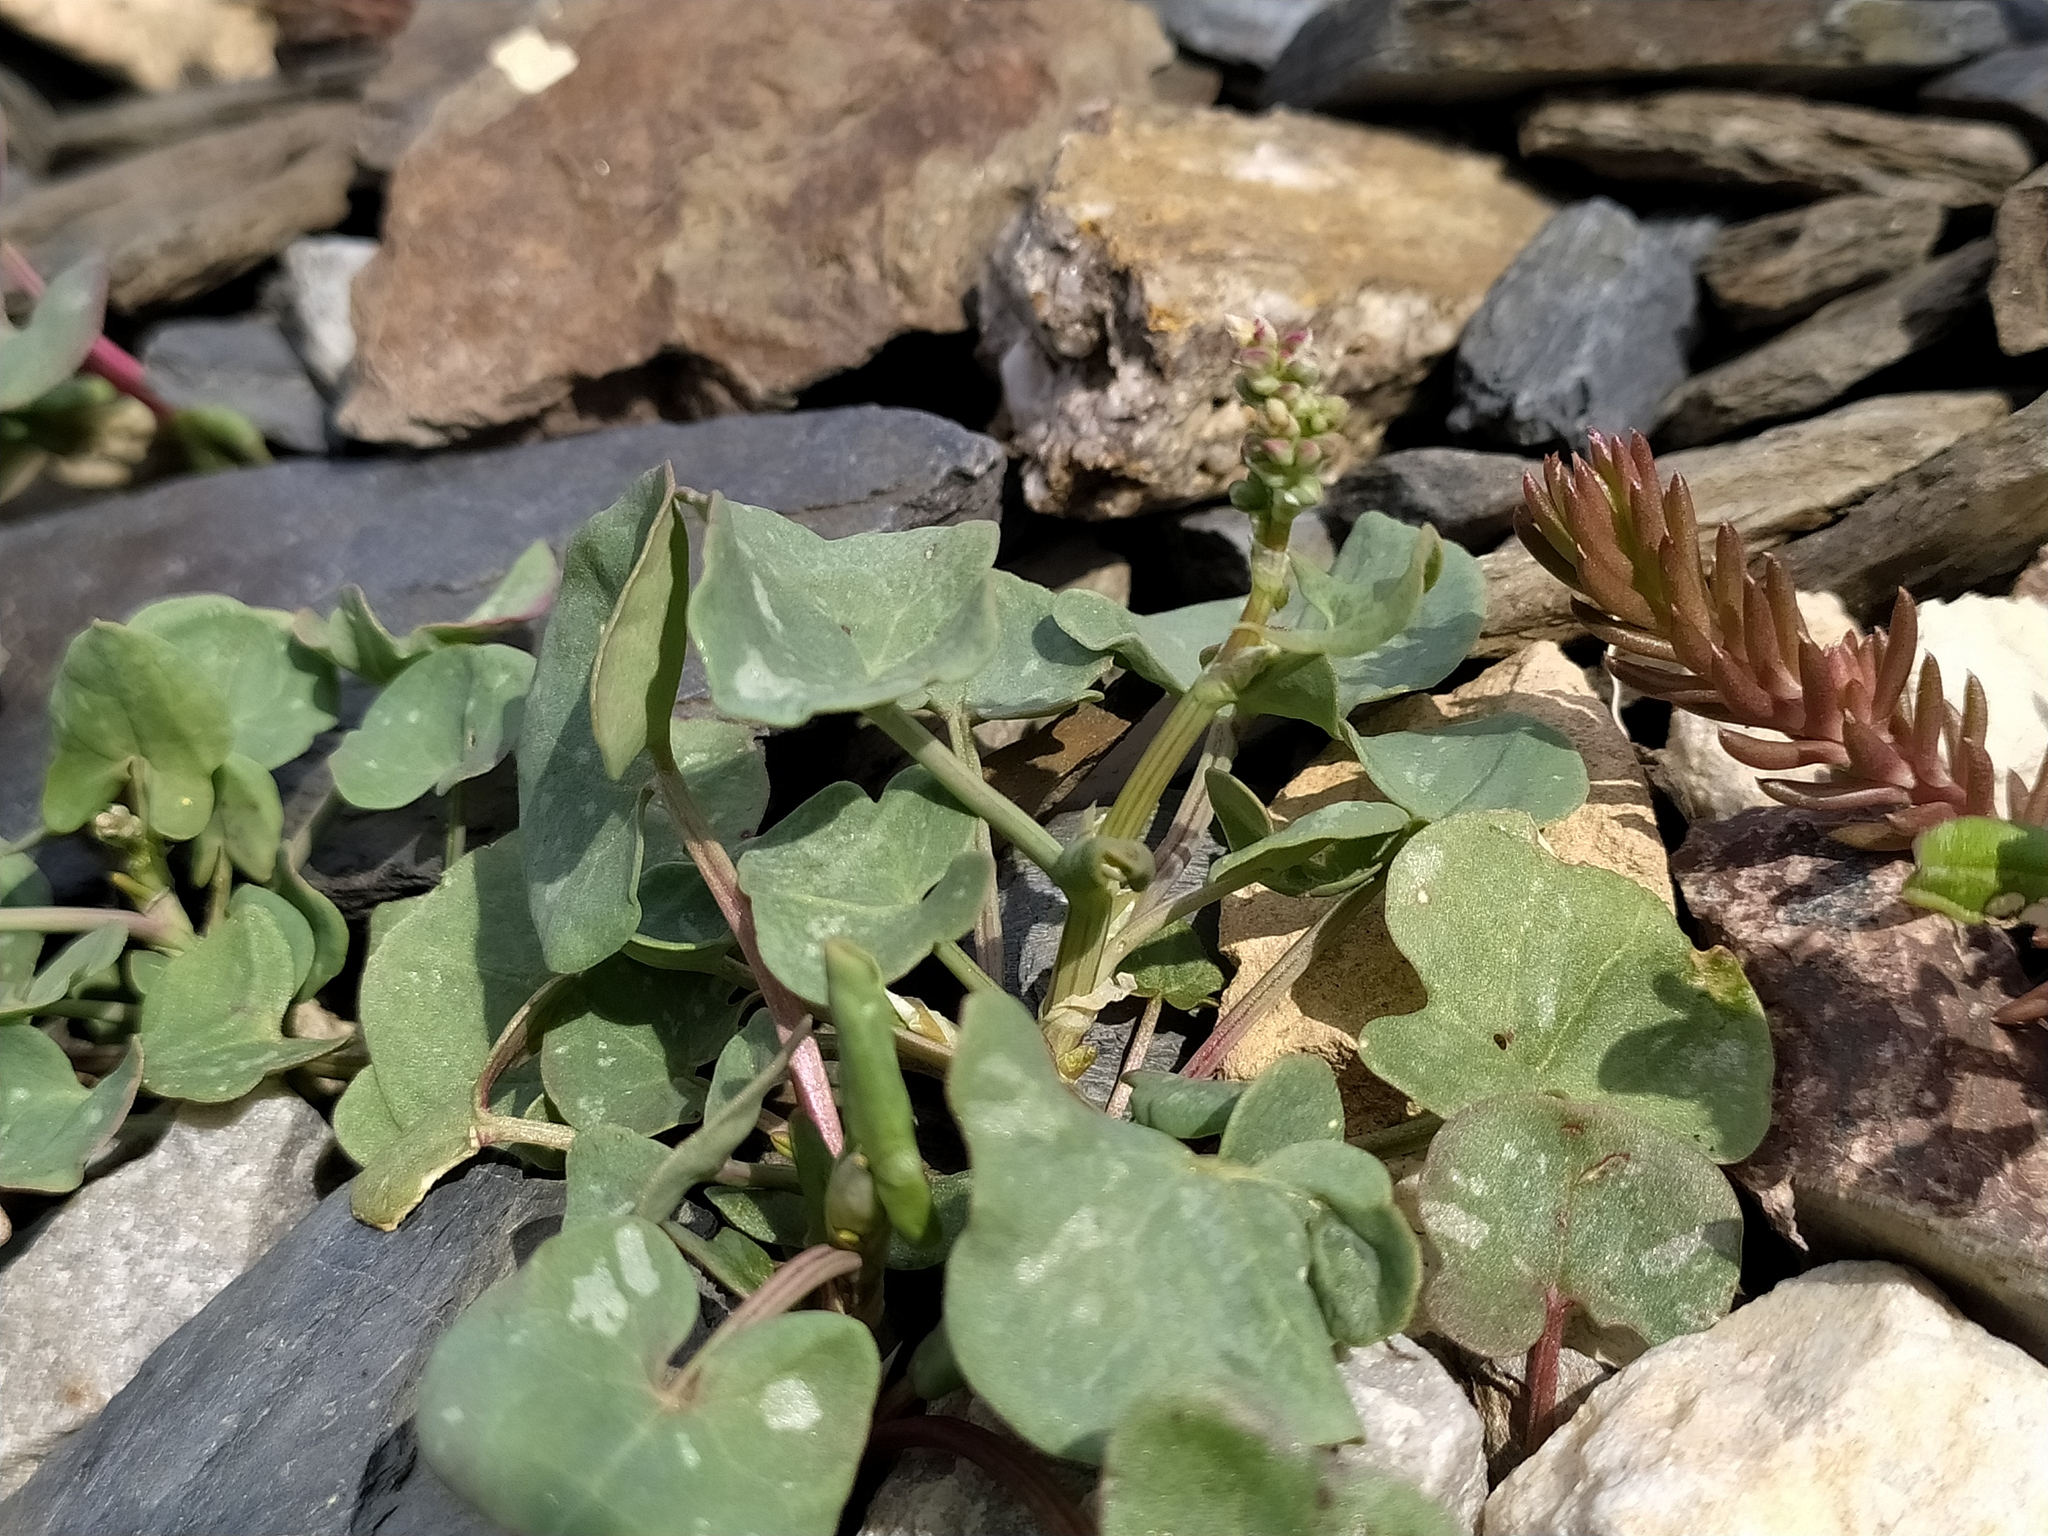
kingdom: Plantae
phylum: Tracheophyta
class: Magnoliopsida
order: Caryophyllales
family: Polygonaceae
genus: Rumex
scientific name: Rumex scutatus
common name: French sorrel
